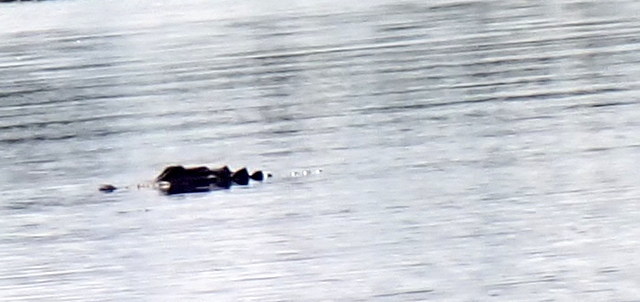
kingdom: Animalia
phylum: Chordata
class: Crocodylia
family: Alligatoridae
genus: Alligator
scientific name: Alligator mississippiensis
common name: American alligator
